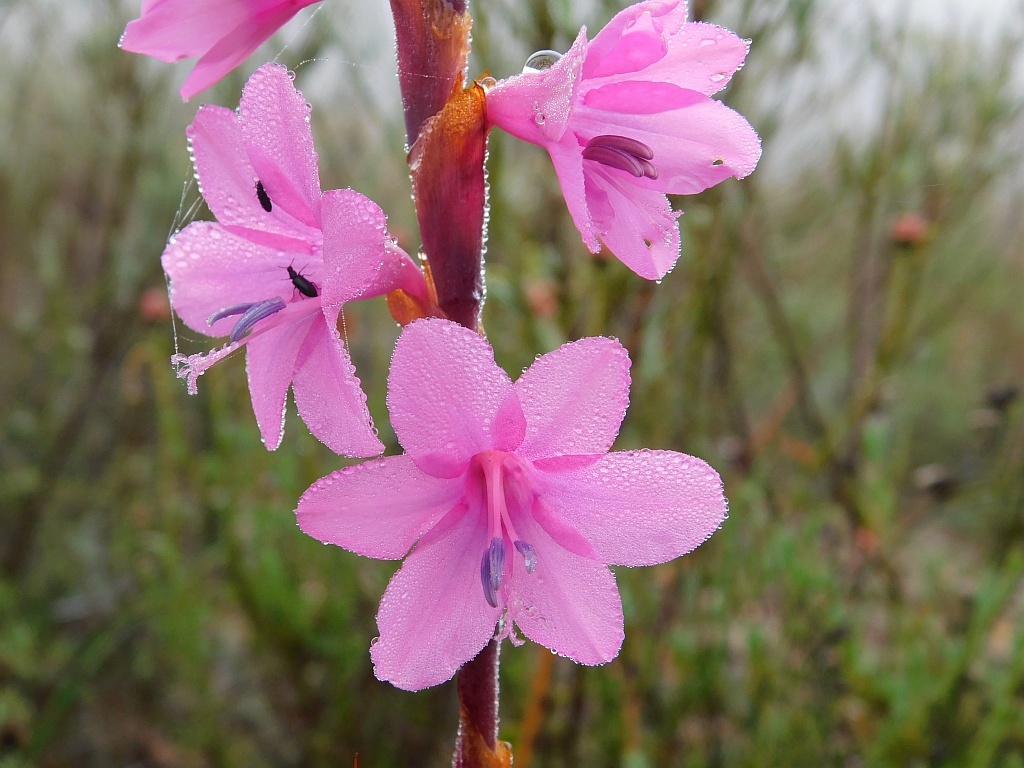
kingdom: Plantae
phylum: Tracheophyta
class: Liliopsida
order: Asparagales
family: Iridaceae
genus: Watsonia
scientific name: Watsonia laccata
